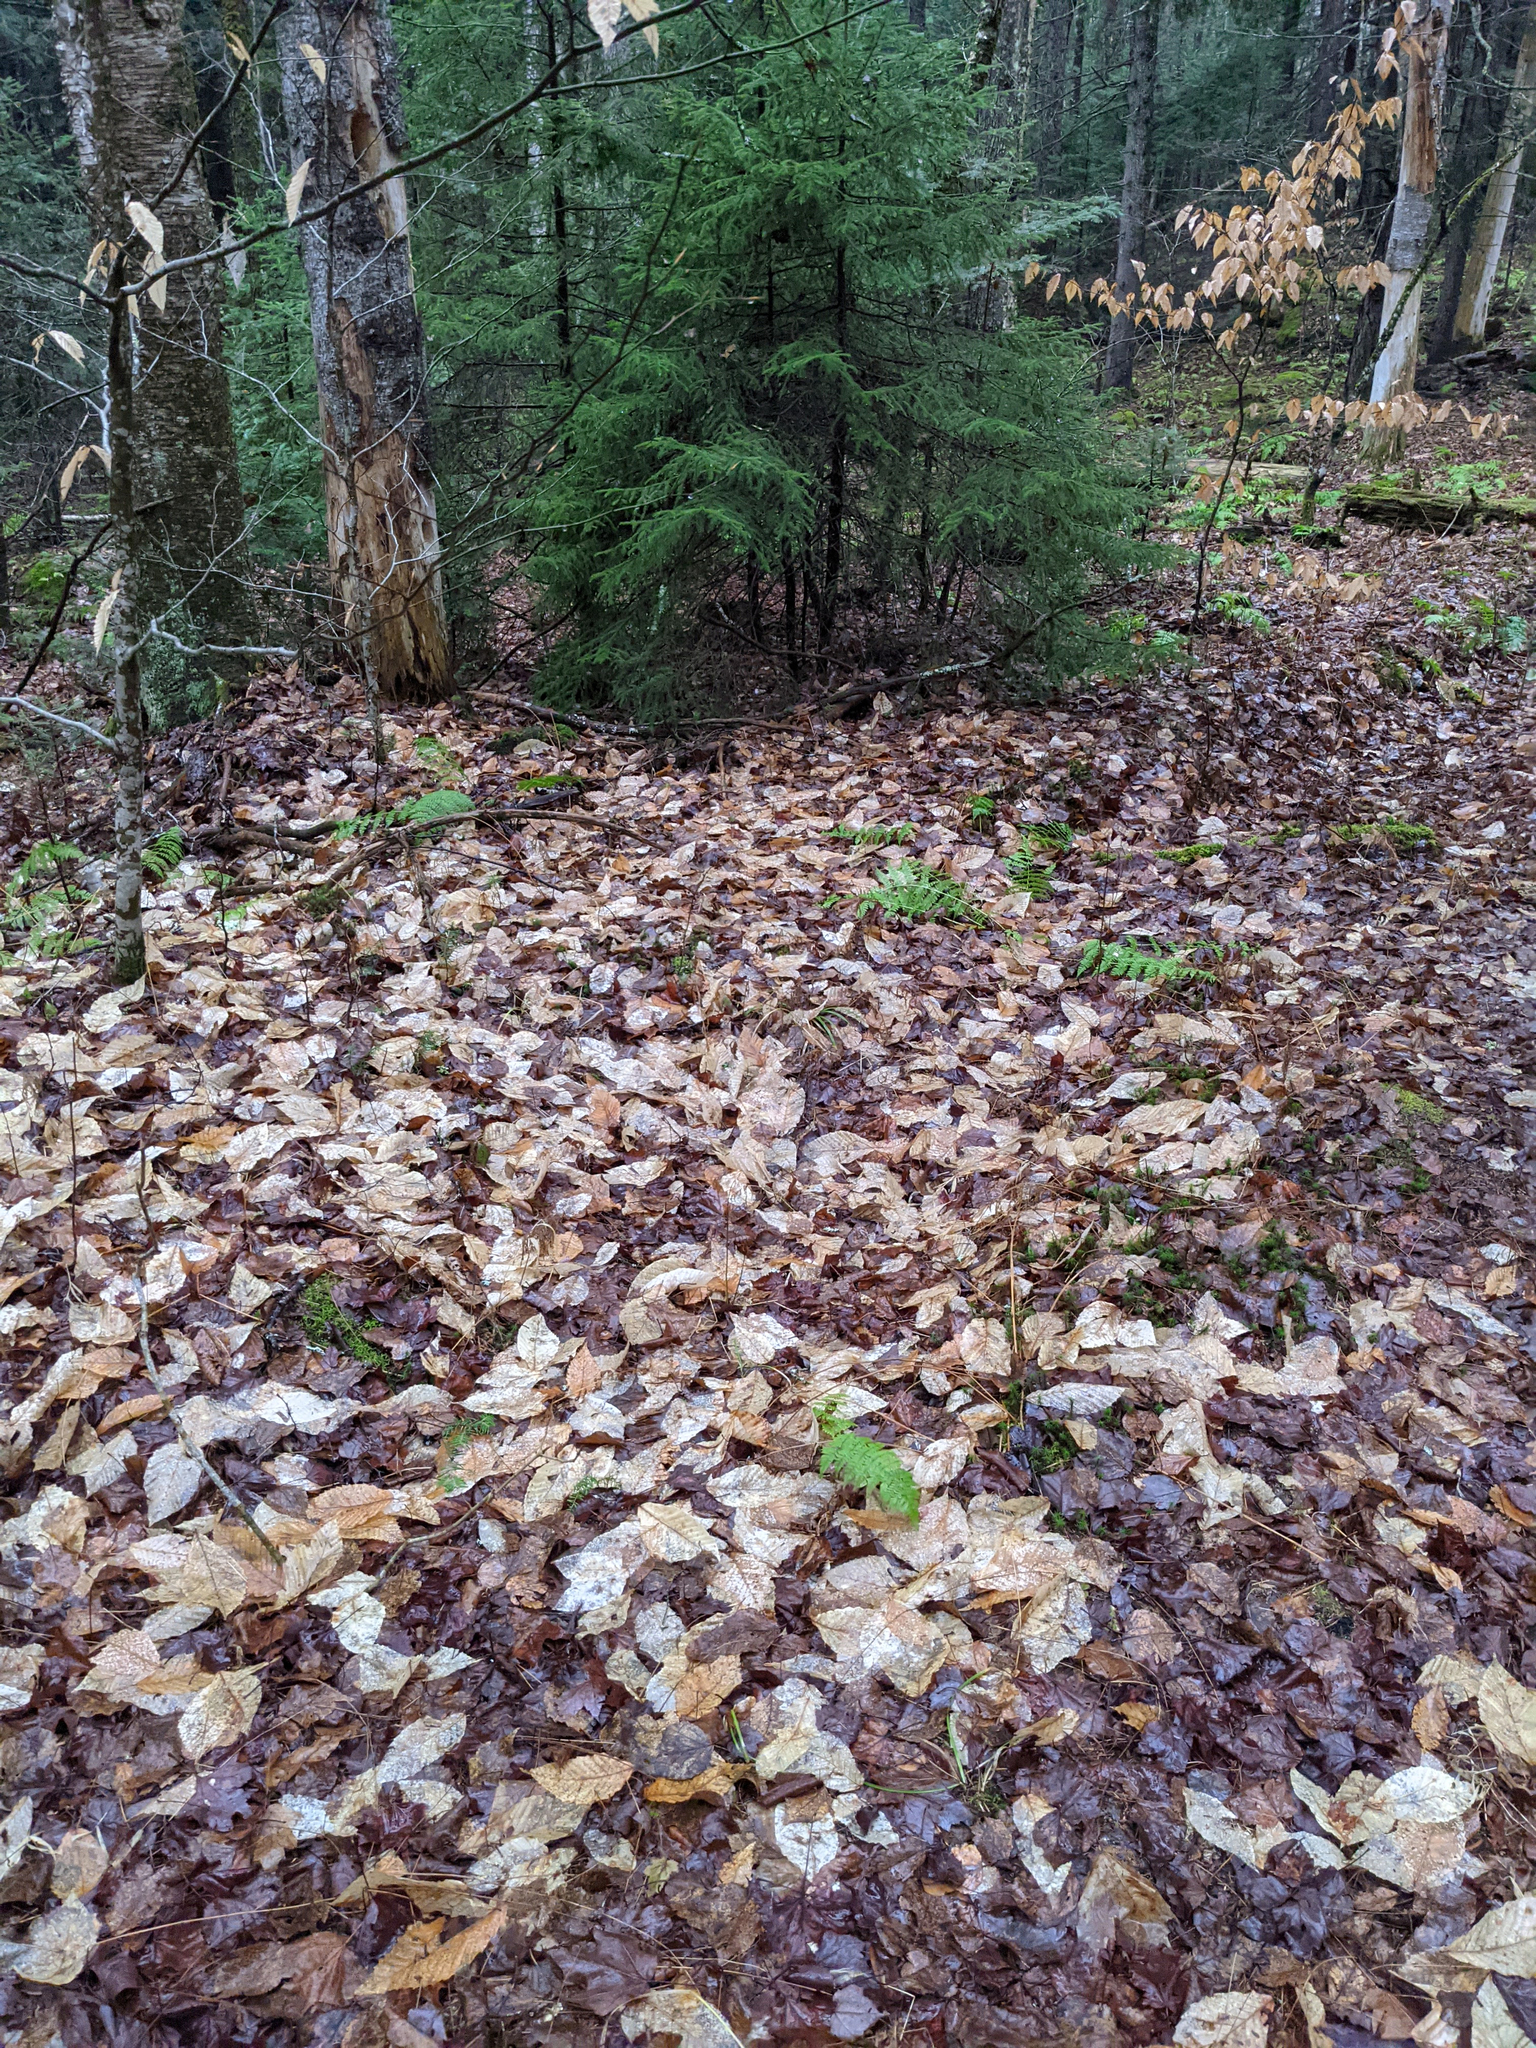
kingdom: Plantae
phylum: Tracheophyta
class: Magnoliopsida
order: Fagales
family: Fagaceae
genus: Fagus
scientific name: Fagus grandifolia
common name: American beech
